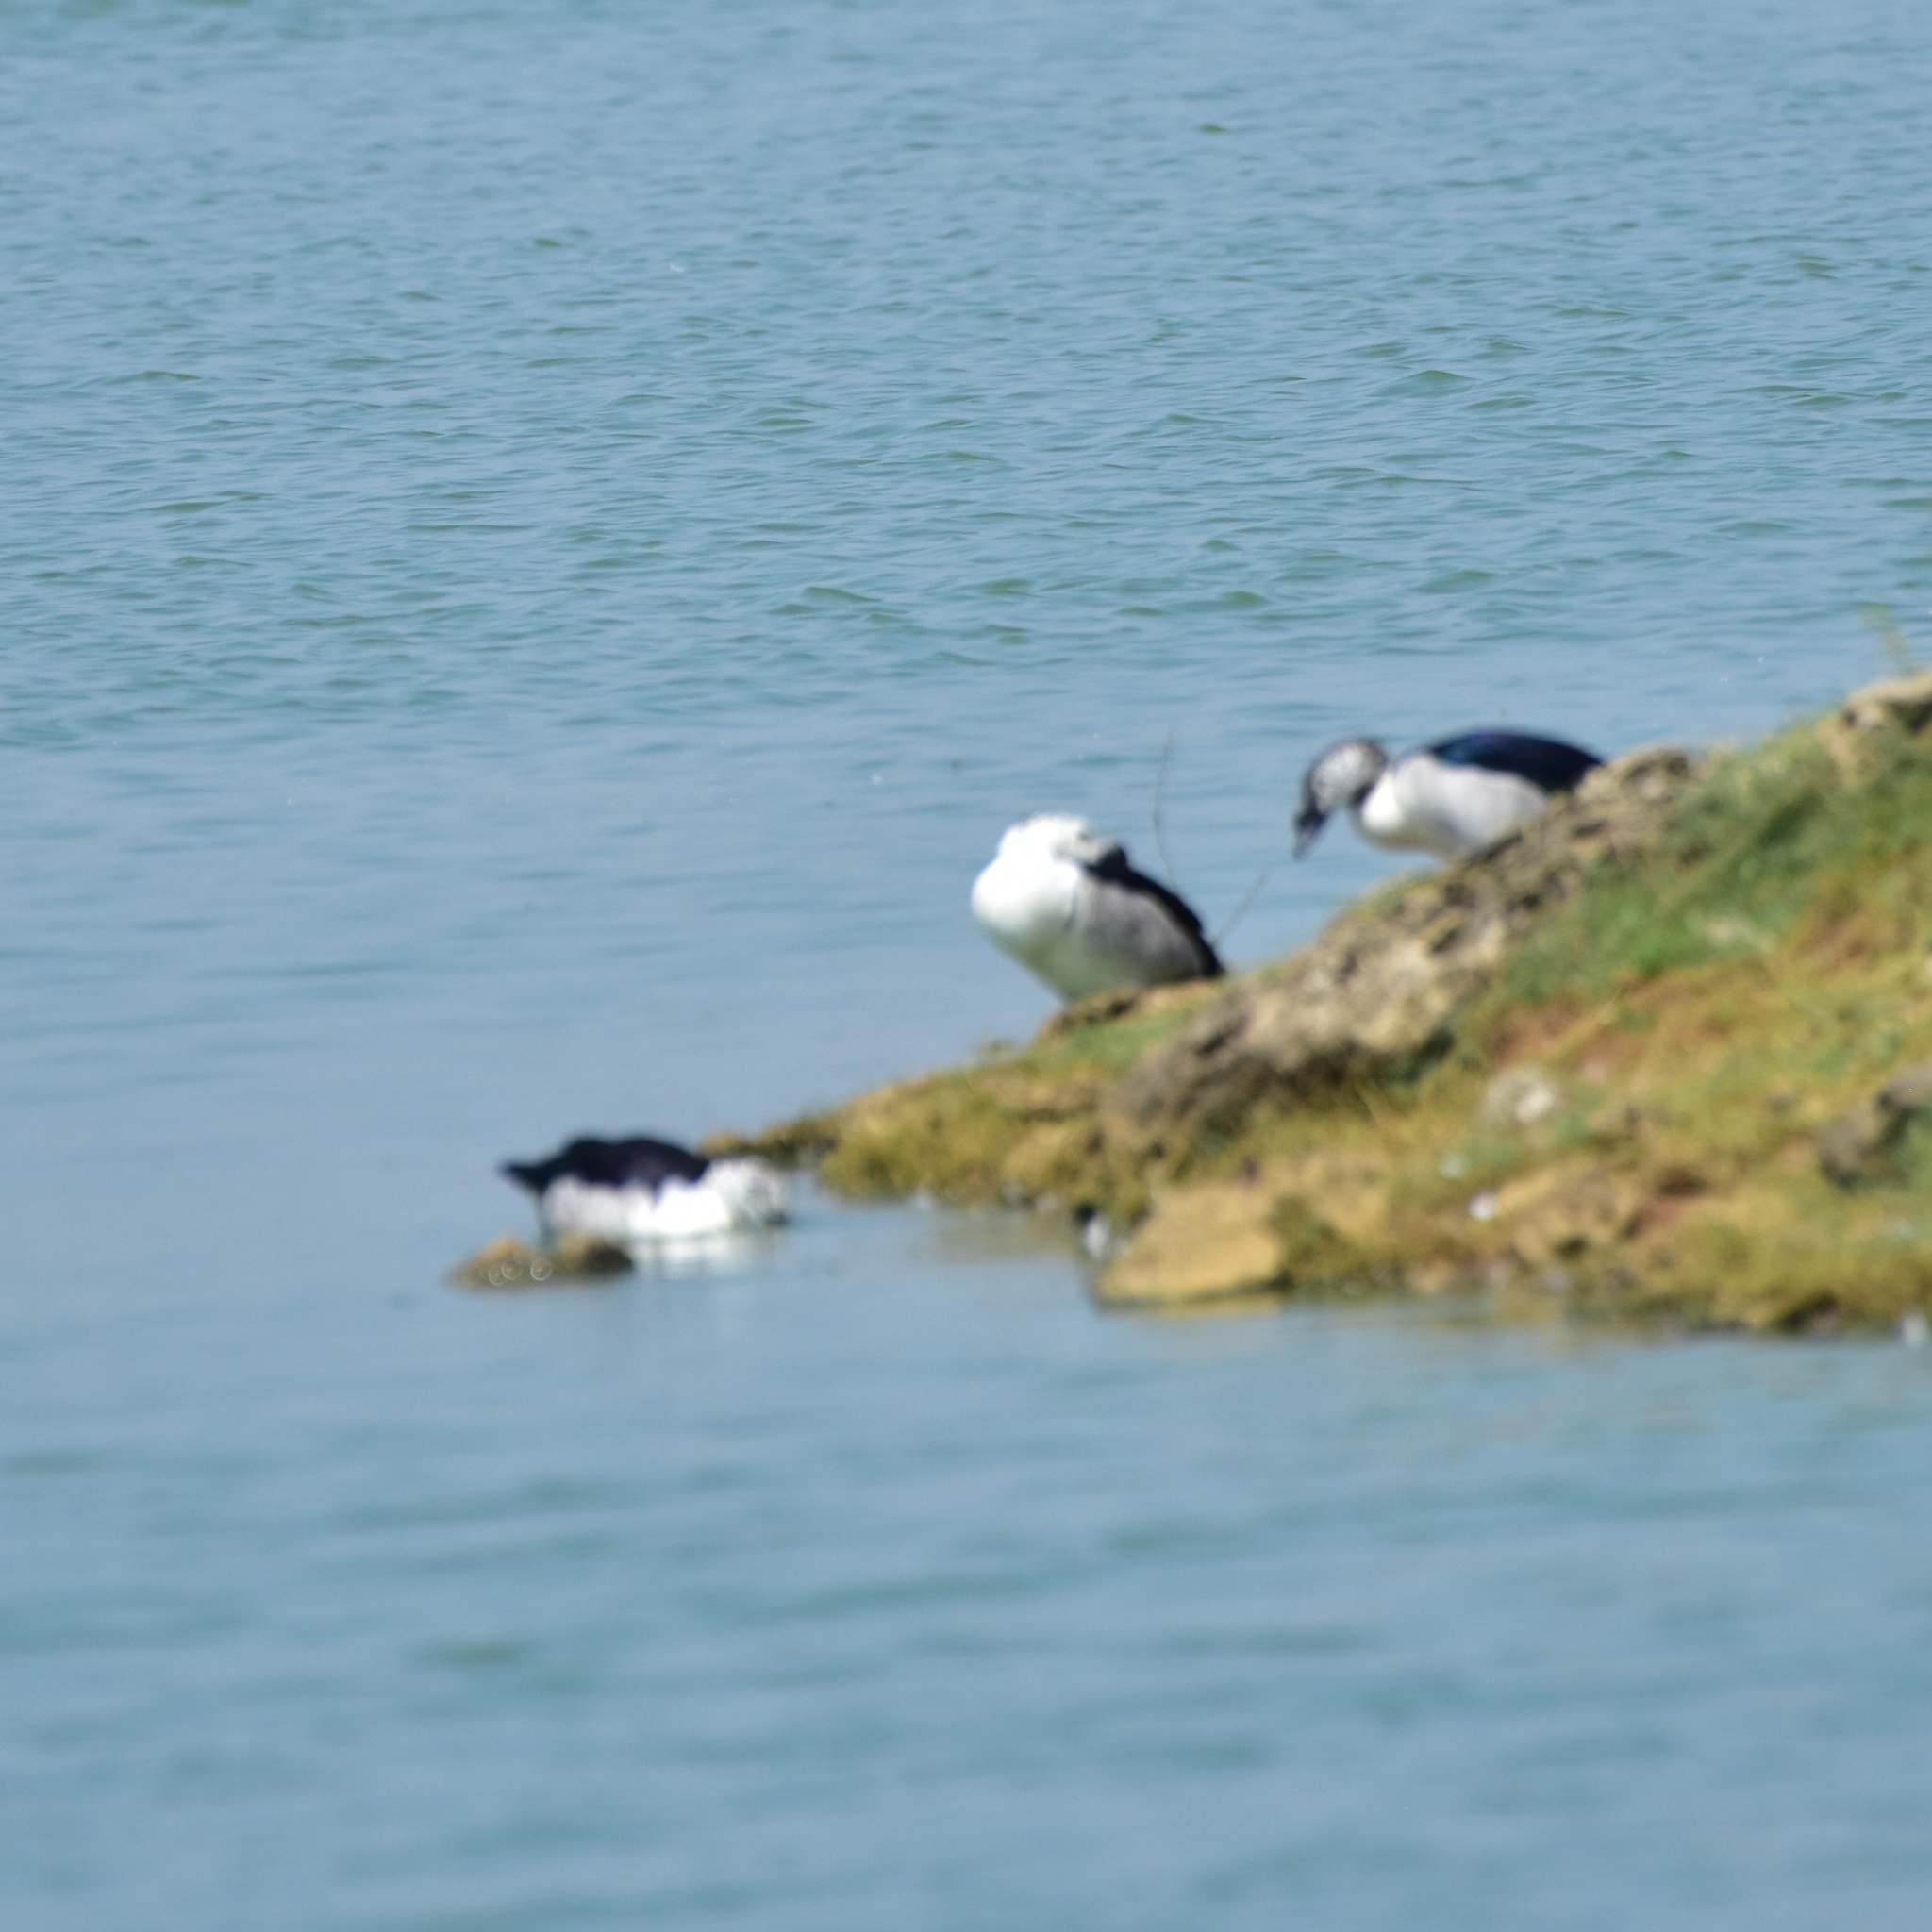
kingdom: Animalia
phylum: Chordata
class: Aves
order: Anseriformes
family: Anatidae
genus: Sarkidiornis
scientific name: Sarkidiornis melanotos
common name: Comb duck
